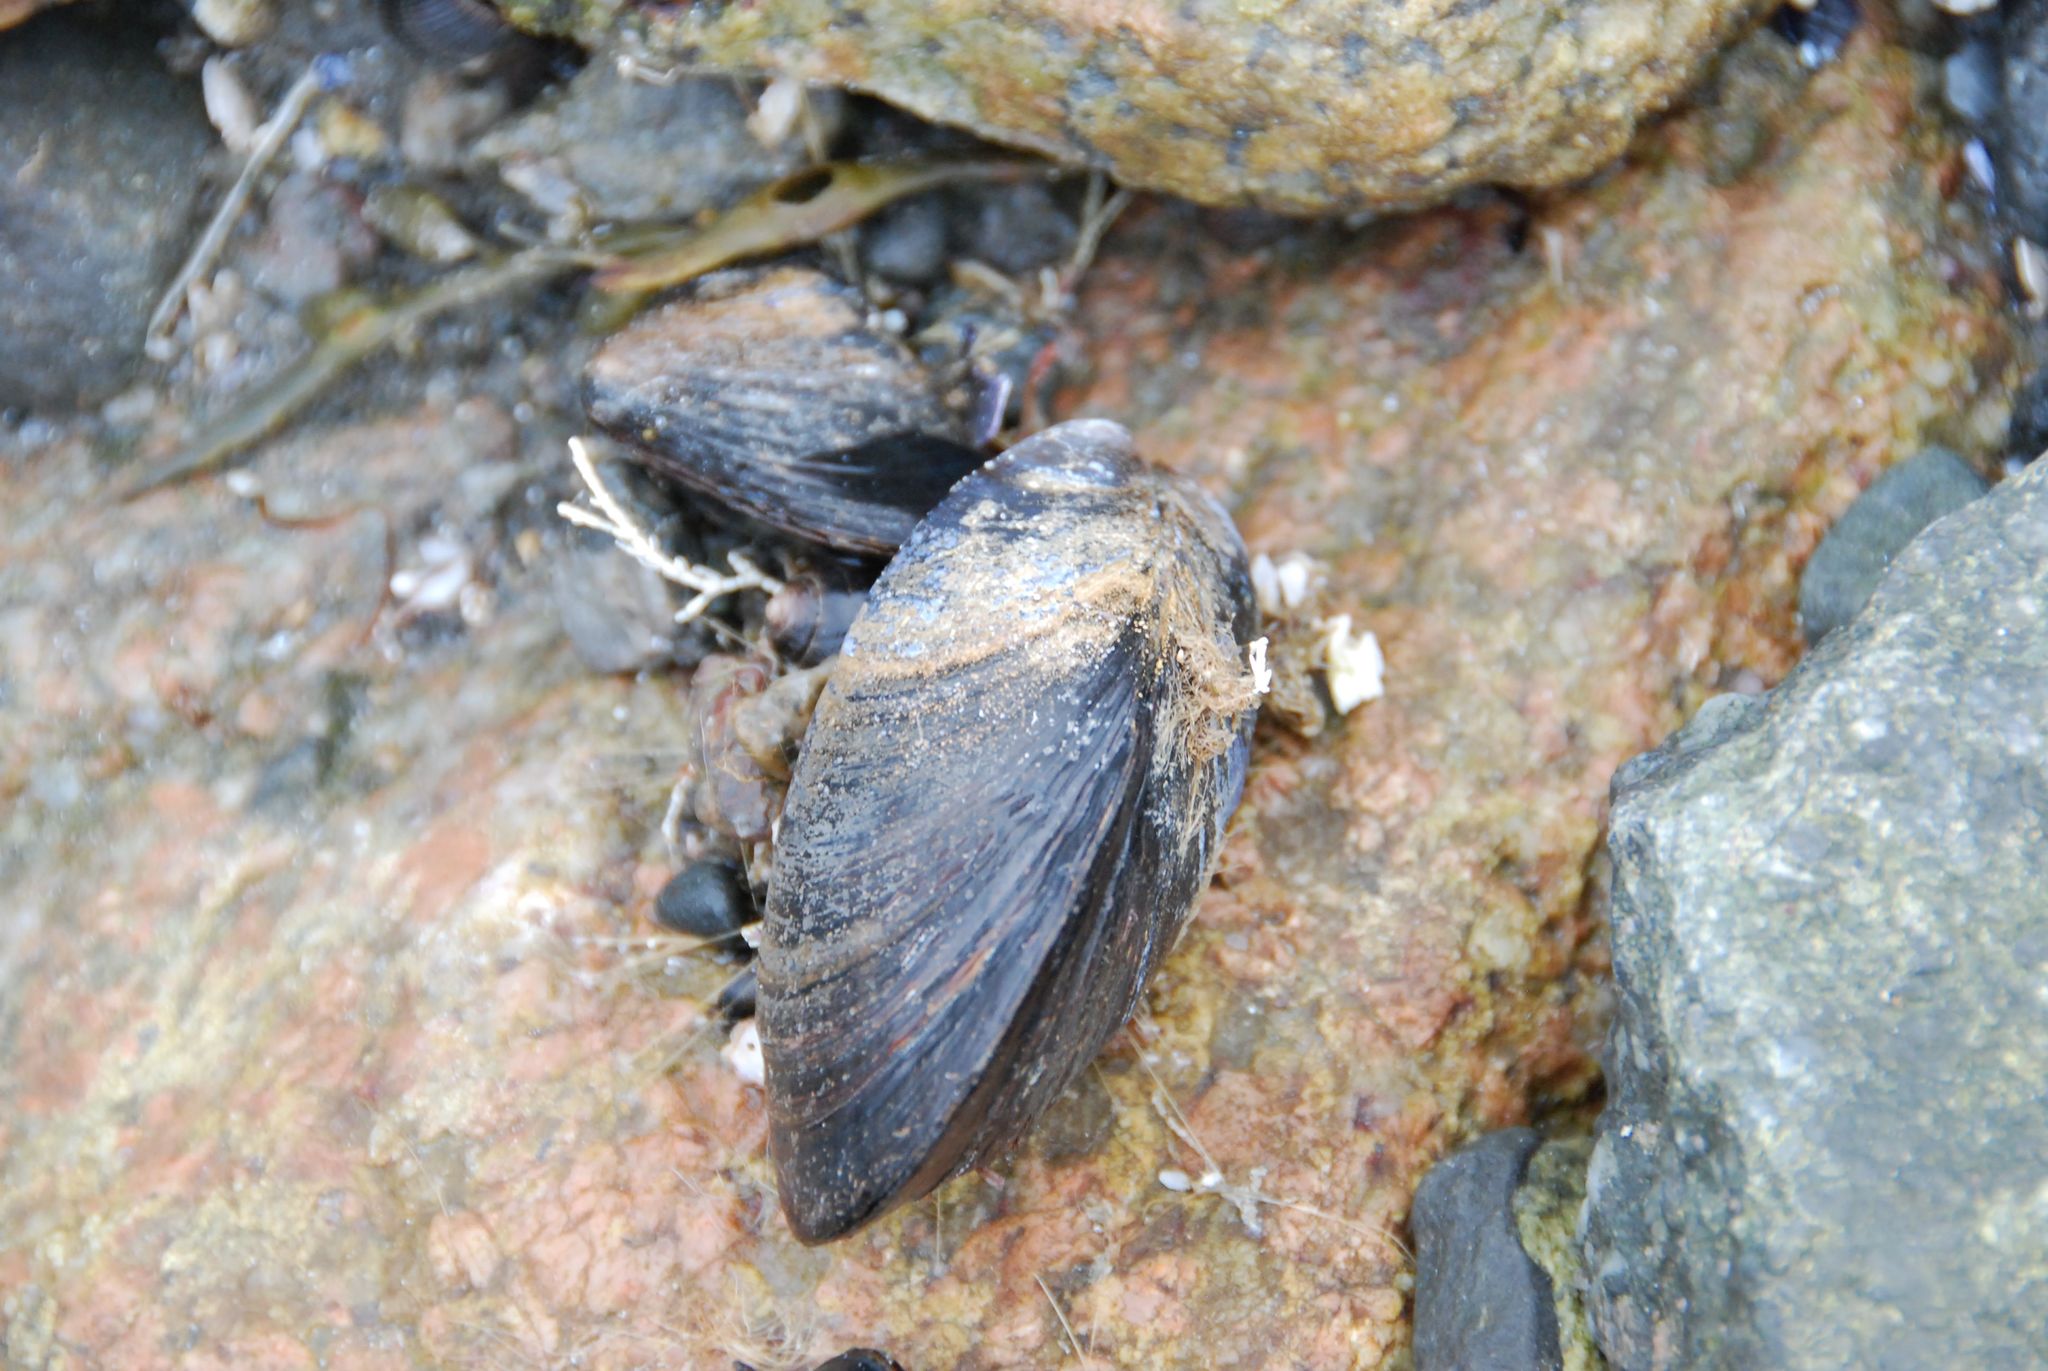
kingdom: Animalia
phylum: Mollusca
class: Bivalvia
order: Mytilida
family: Mytilidae
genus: Mytilus
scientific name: Mytilus edulis
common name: Blue mussel
